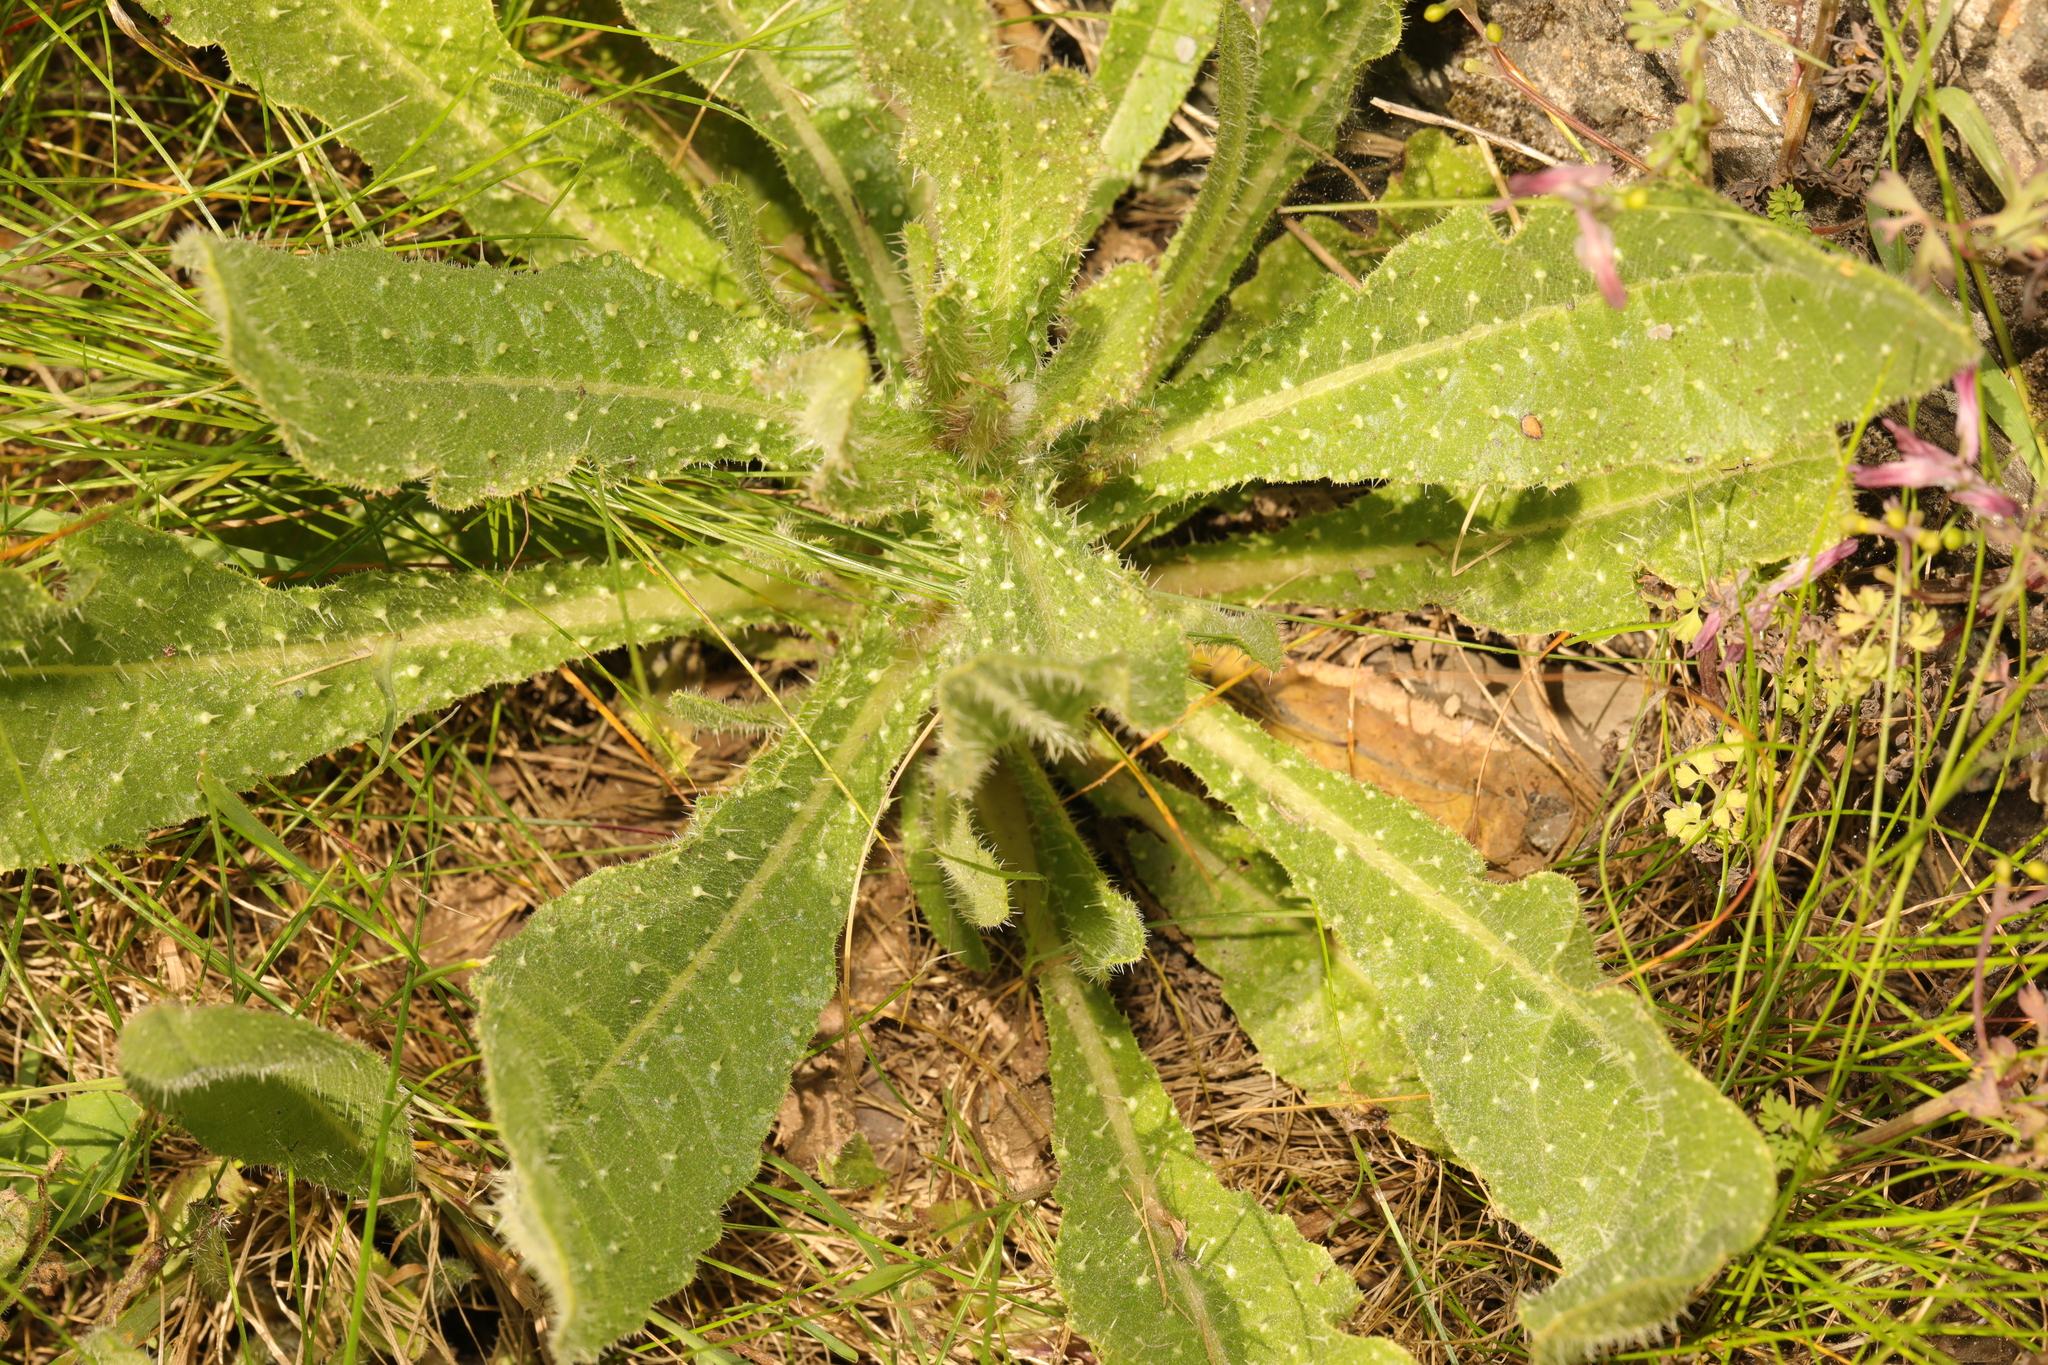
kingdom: Plantae
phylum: Tracheophyta
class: Magnoliopsida
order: Asterales
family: Asteraceae
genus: Helminthotheca
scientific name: Helminthotheca echioides
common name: Ox-tongue
